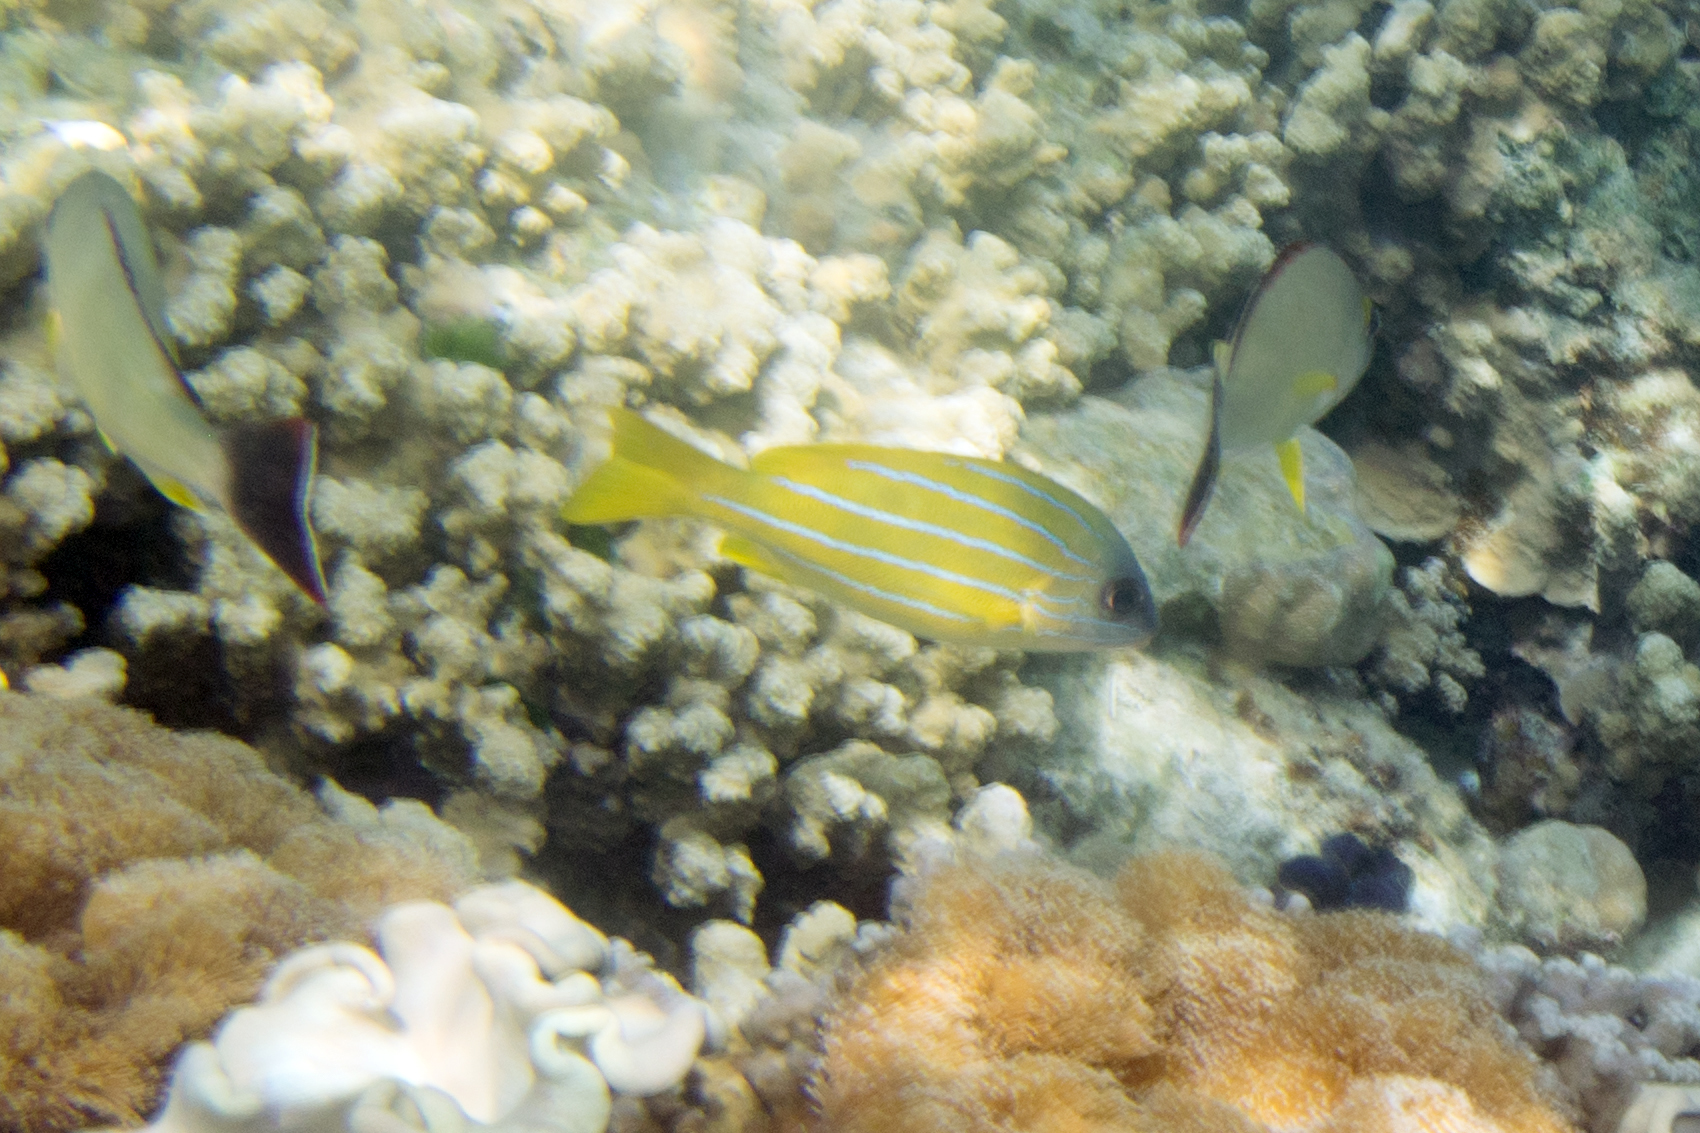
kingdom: Animalia
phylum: Chordata
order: Perciformes
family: Lutjanidae
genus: Lutjanus
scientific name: Lutjanus quinquelineatus
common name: Five-lined snapper
